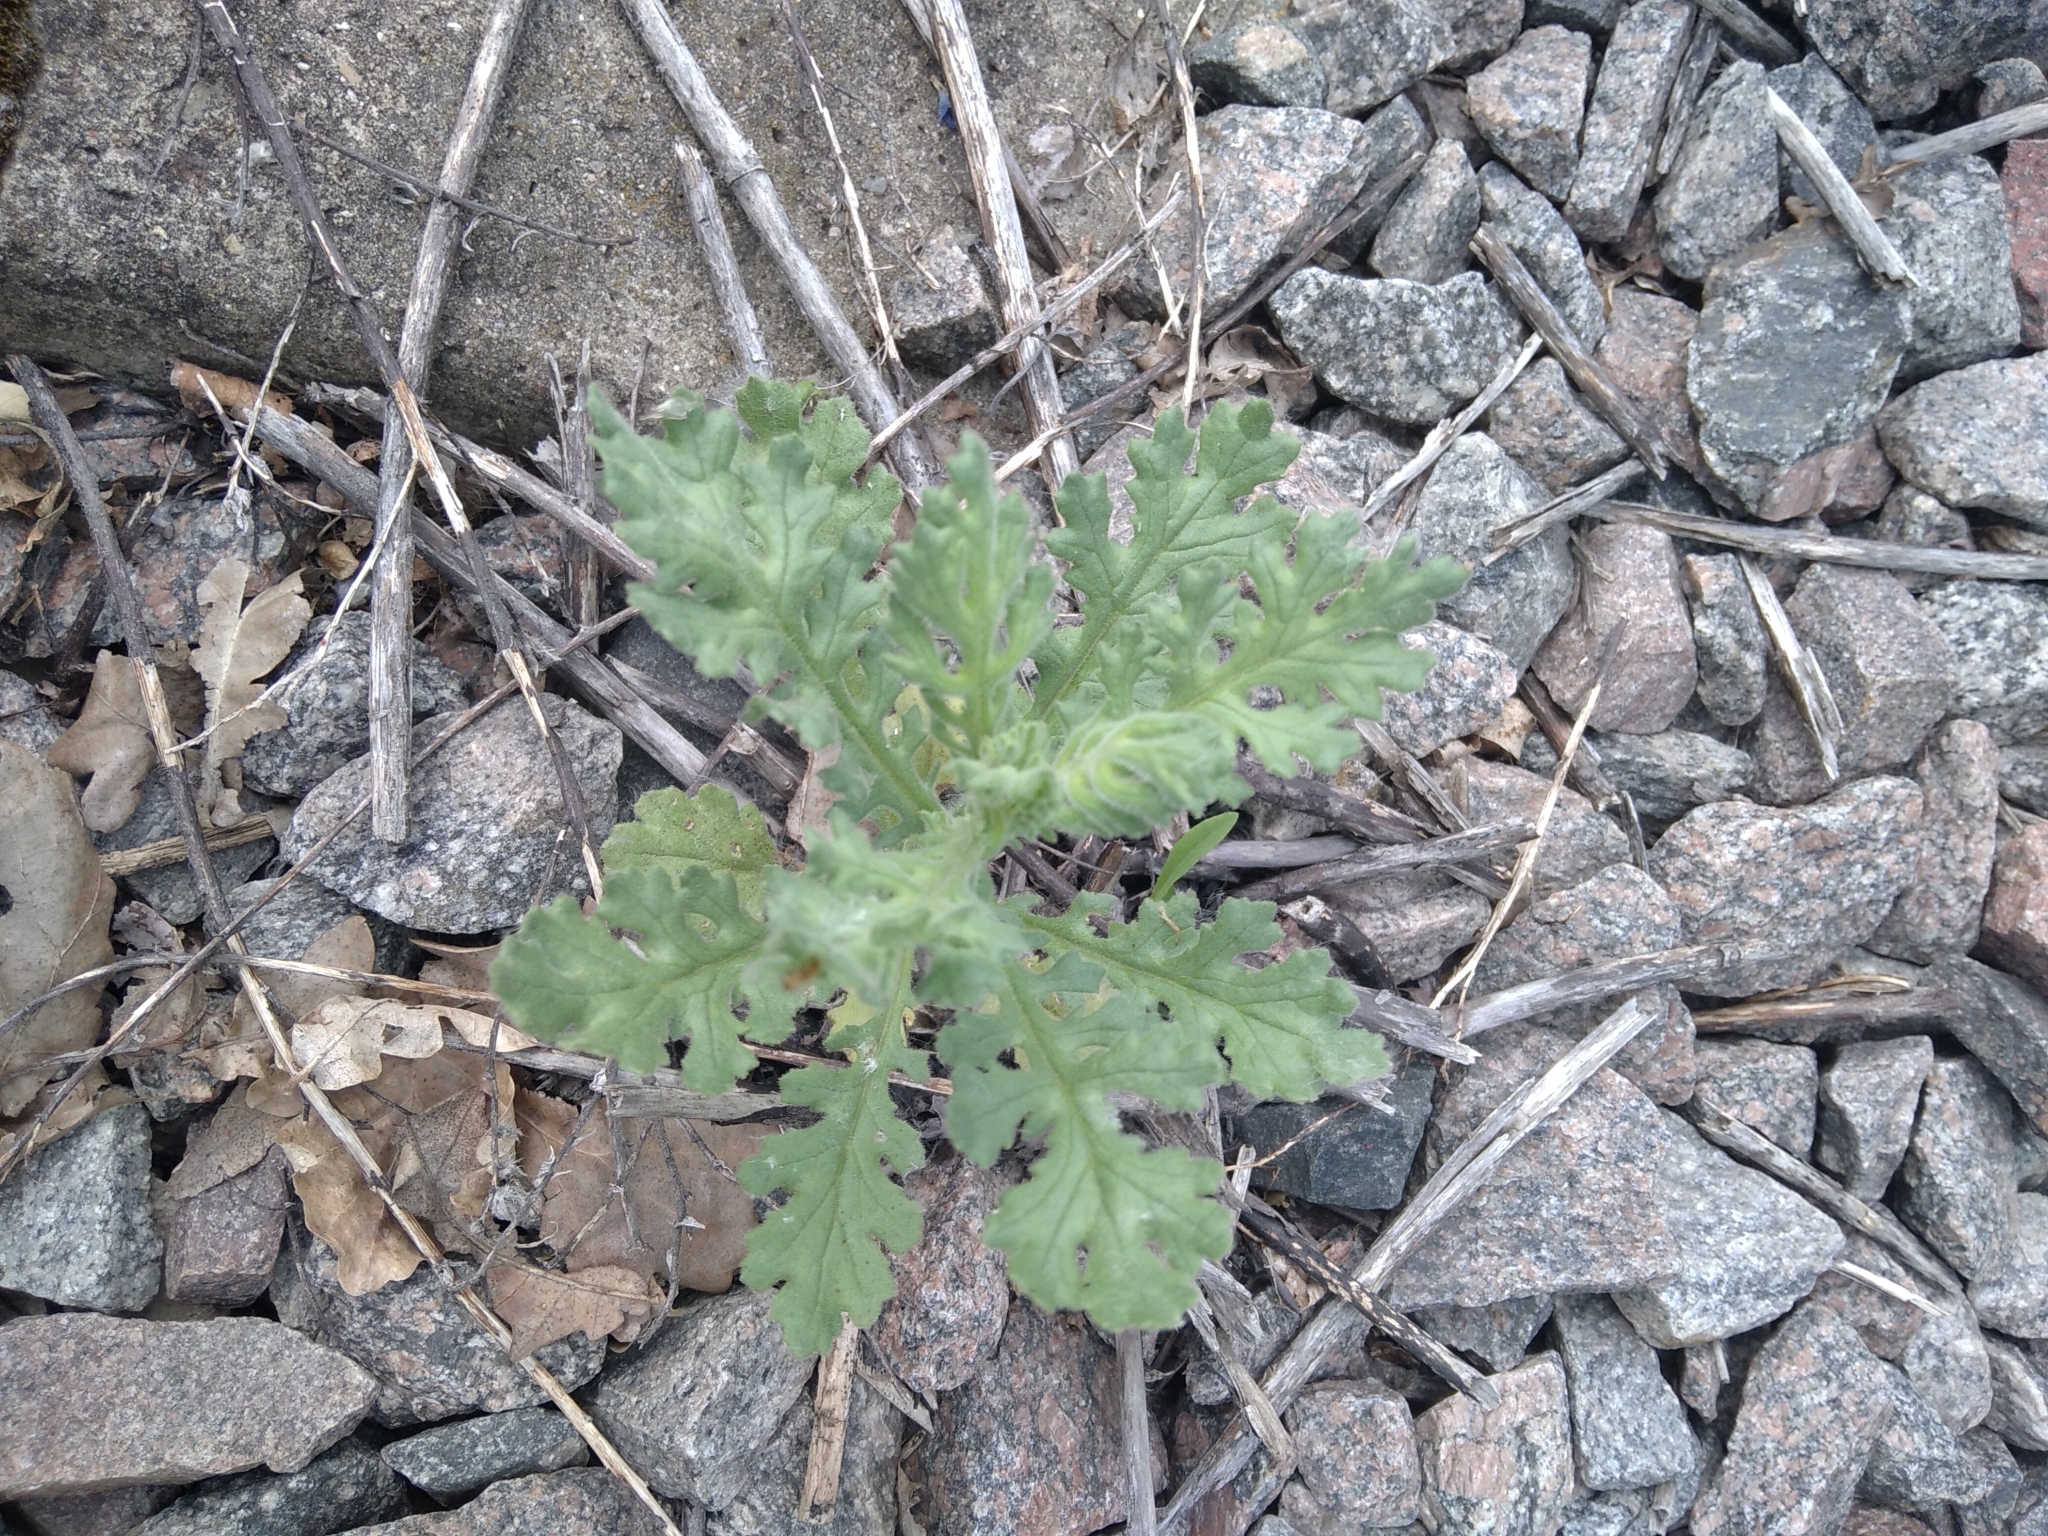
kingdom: Plantae
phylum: Tracheophyta
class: Magnoliopsida
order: Asterales
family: Asteraceae
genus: Senecio
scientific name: Senecio viscosus
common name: Sticky groundsel
